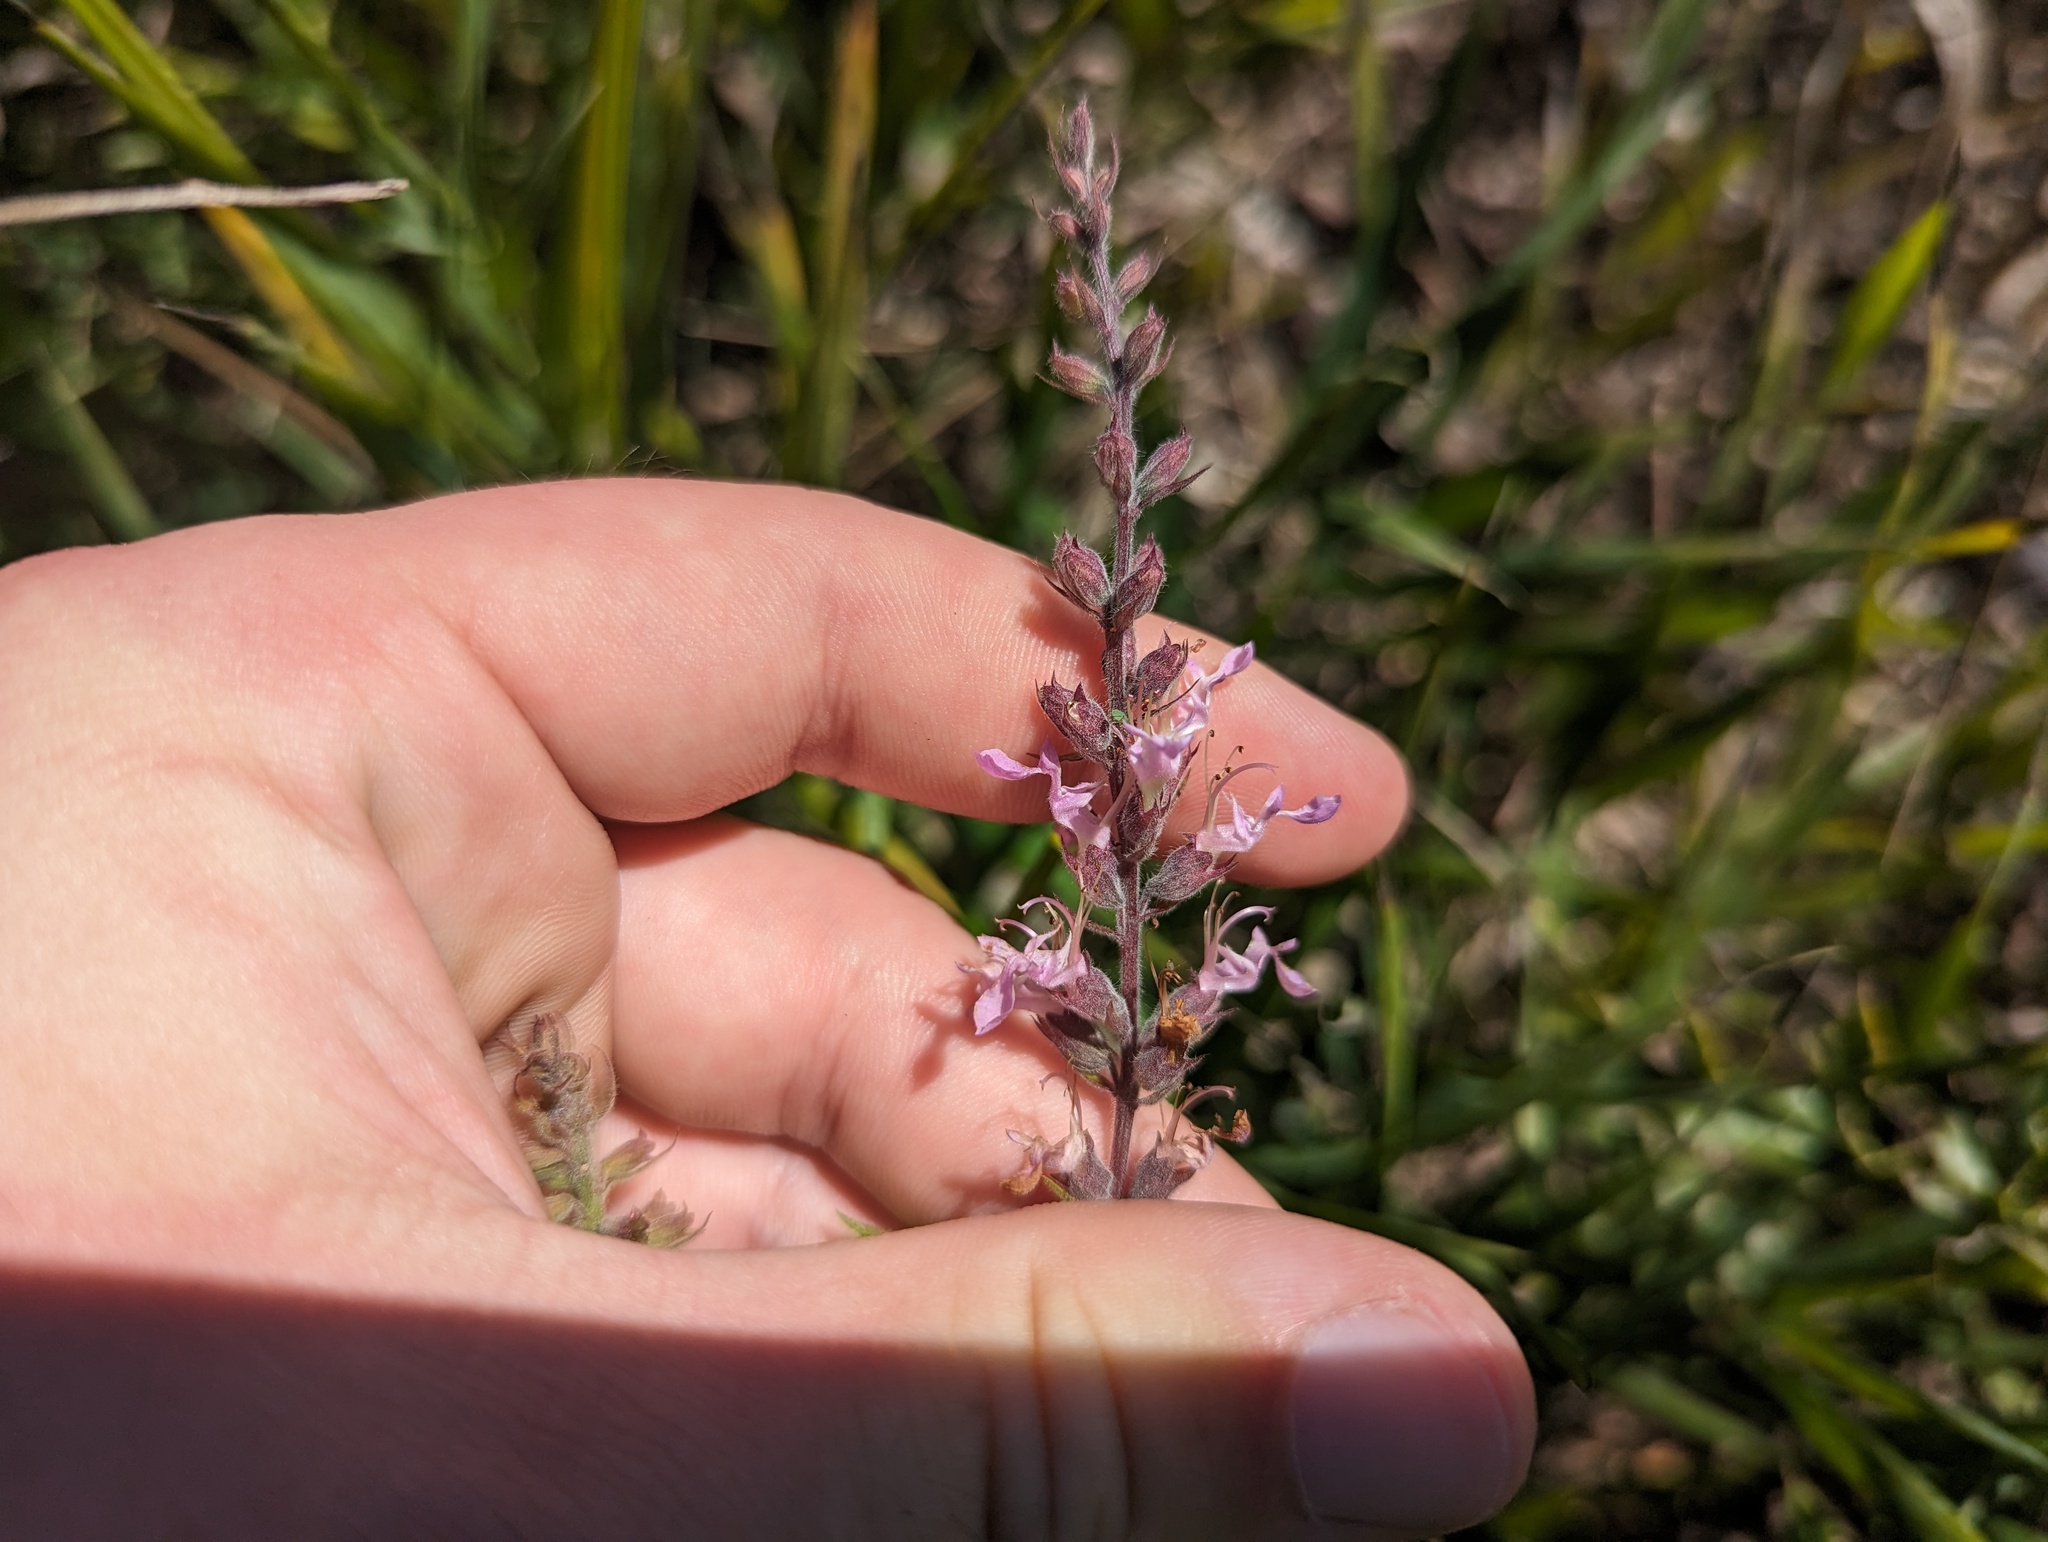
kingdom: Plantae
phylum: Tracheophyta
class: Magnoliopsida
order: Lamiales
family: Lamiaceae
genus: Teucrium
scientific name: Teucrium canadense
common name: American germander
